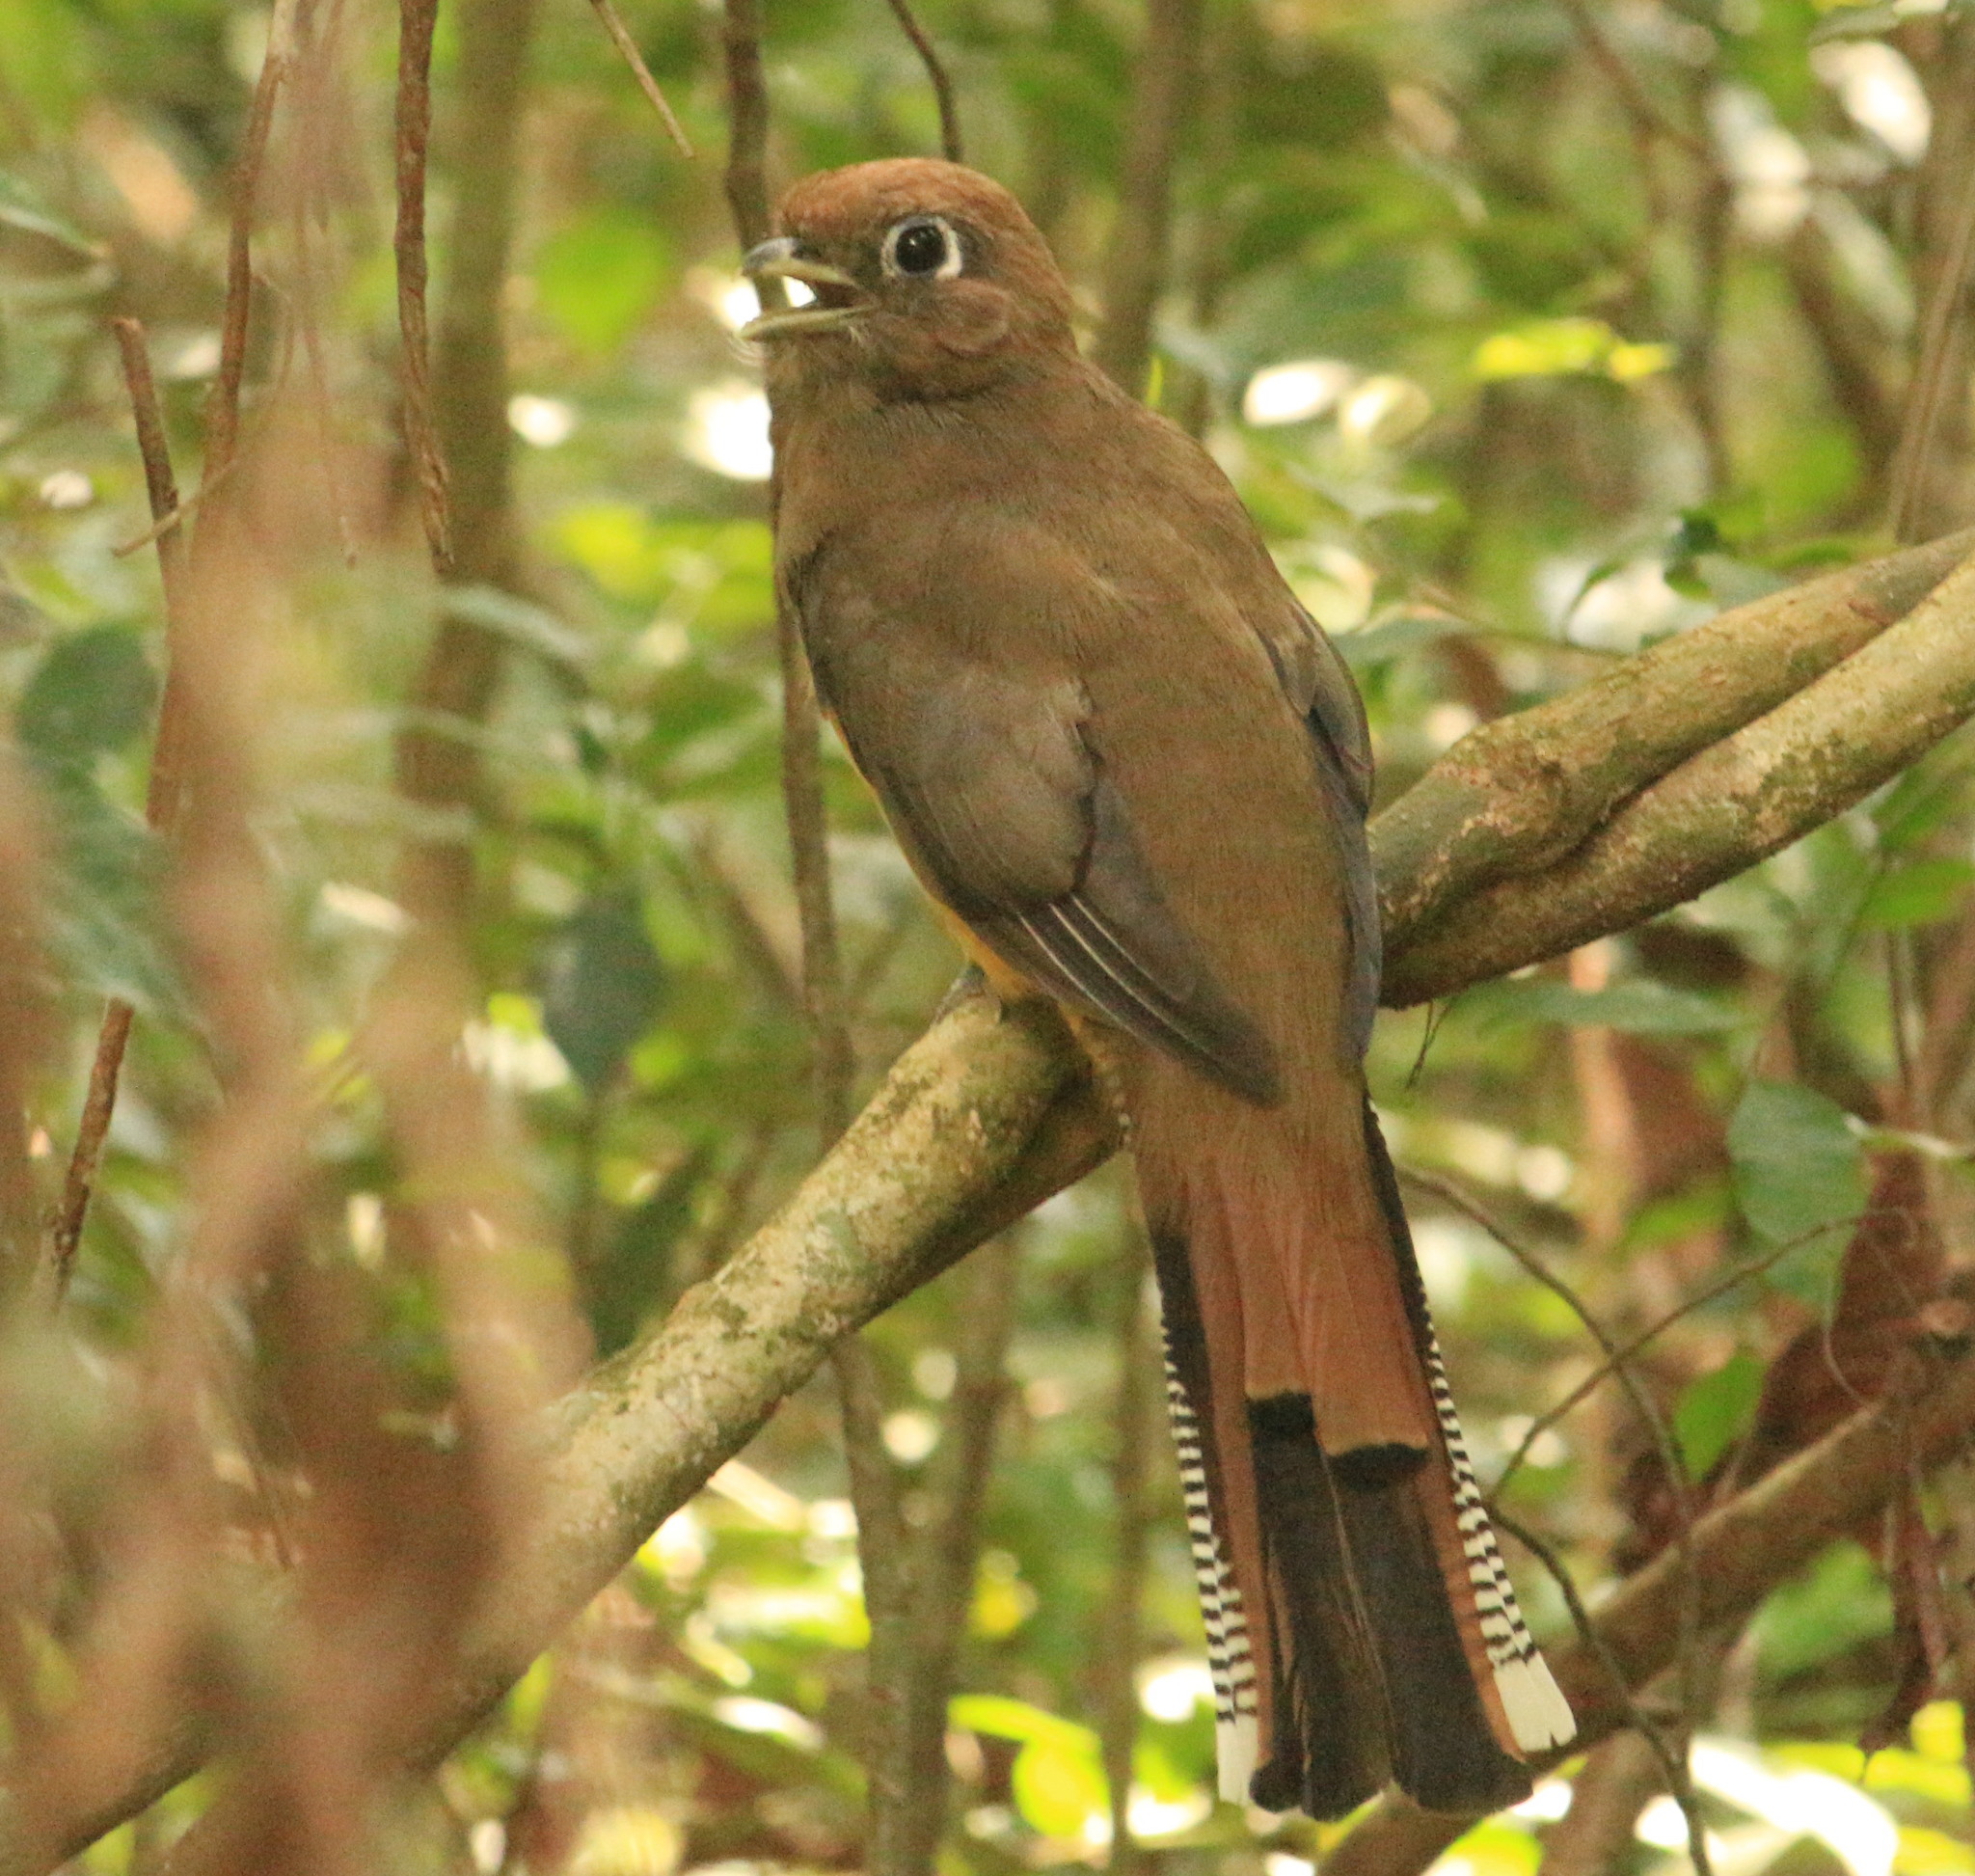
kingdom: Animalia
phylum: Chordata
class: Aves
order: Trogoniformes
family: Trogonidae
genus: Trogon
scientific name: Trogon rufus
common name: Black-throated trogon
